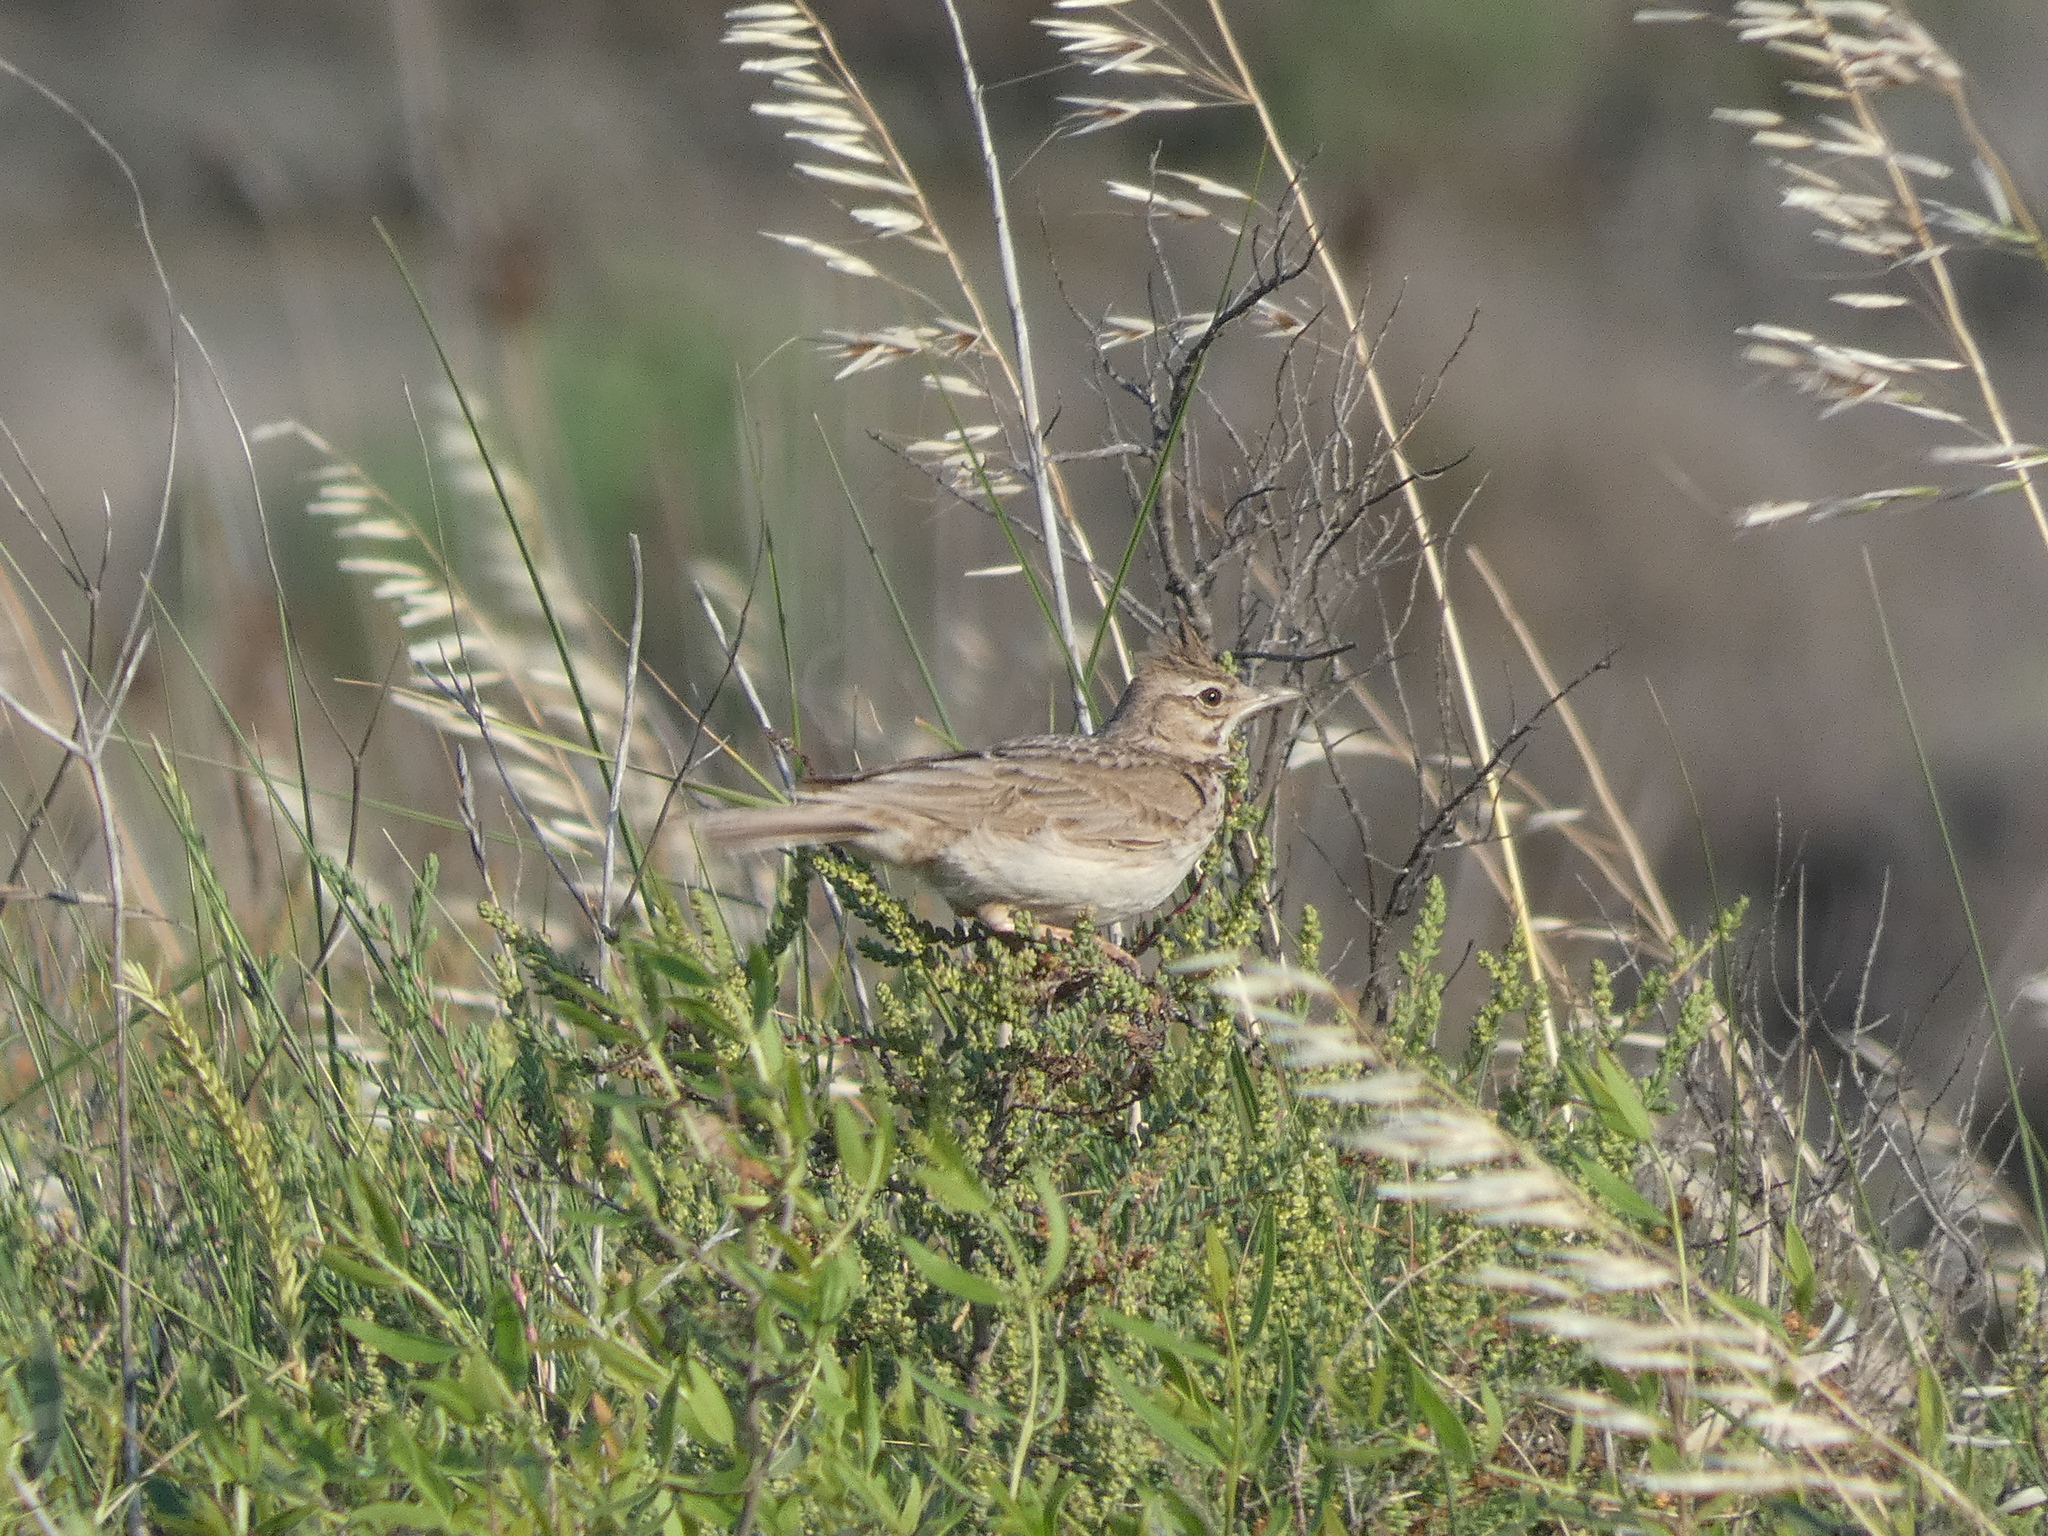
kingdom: Animalia
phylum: Chordata
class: Aves
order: Passeriformes
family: Alaudidae
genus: Galerida
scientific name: Galerida cristata
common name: Crested lark
